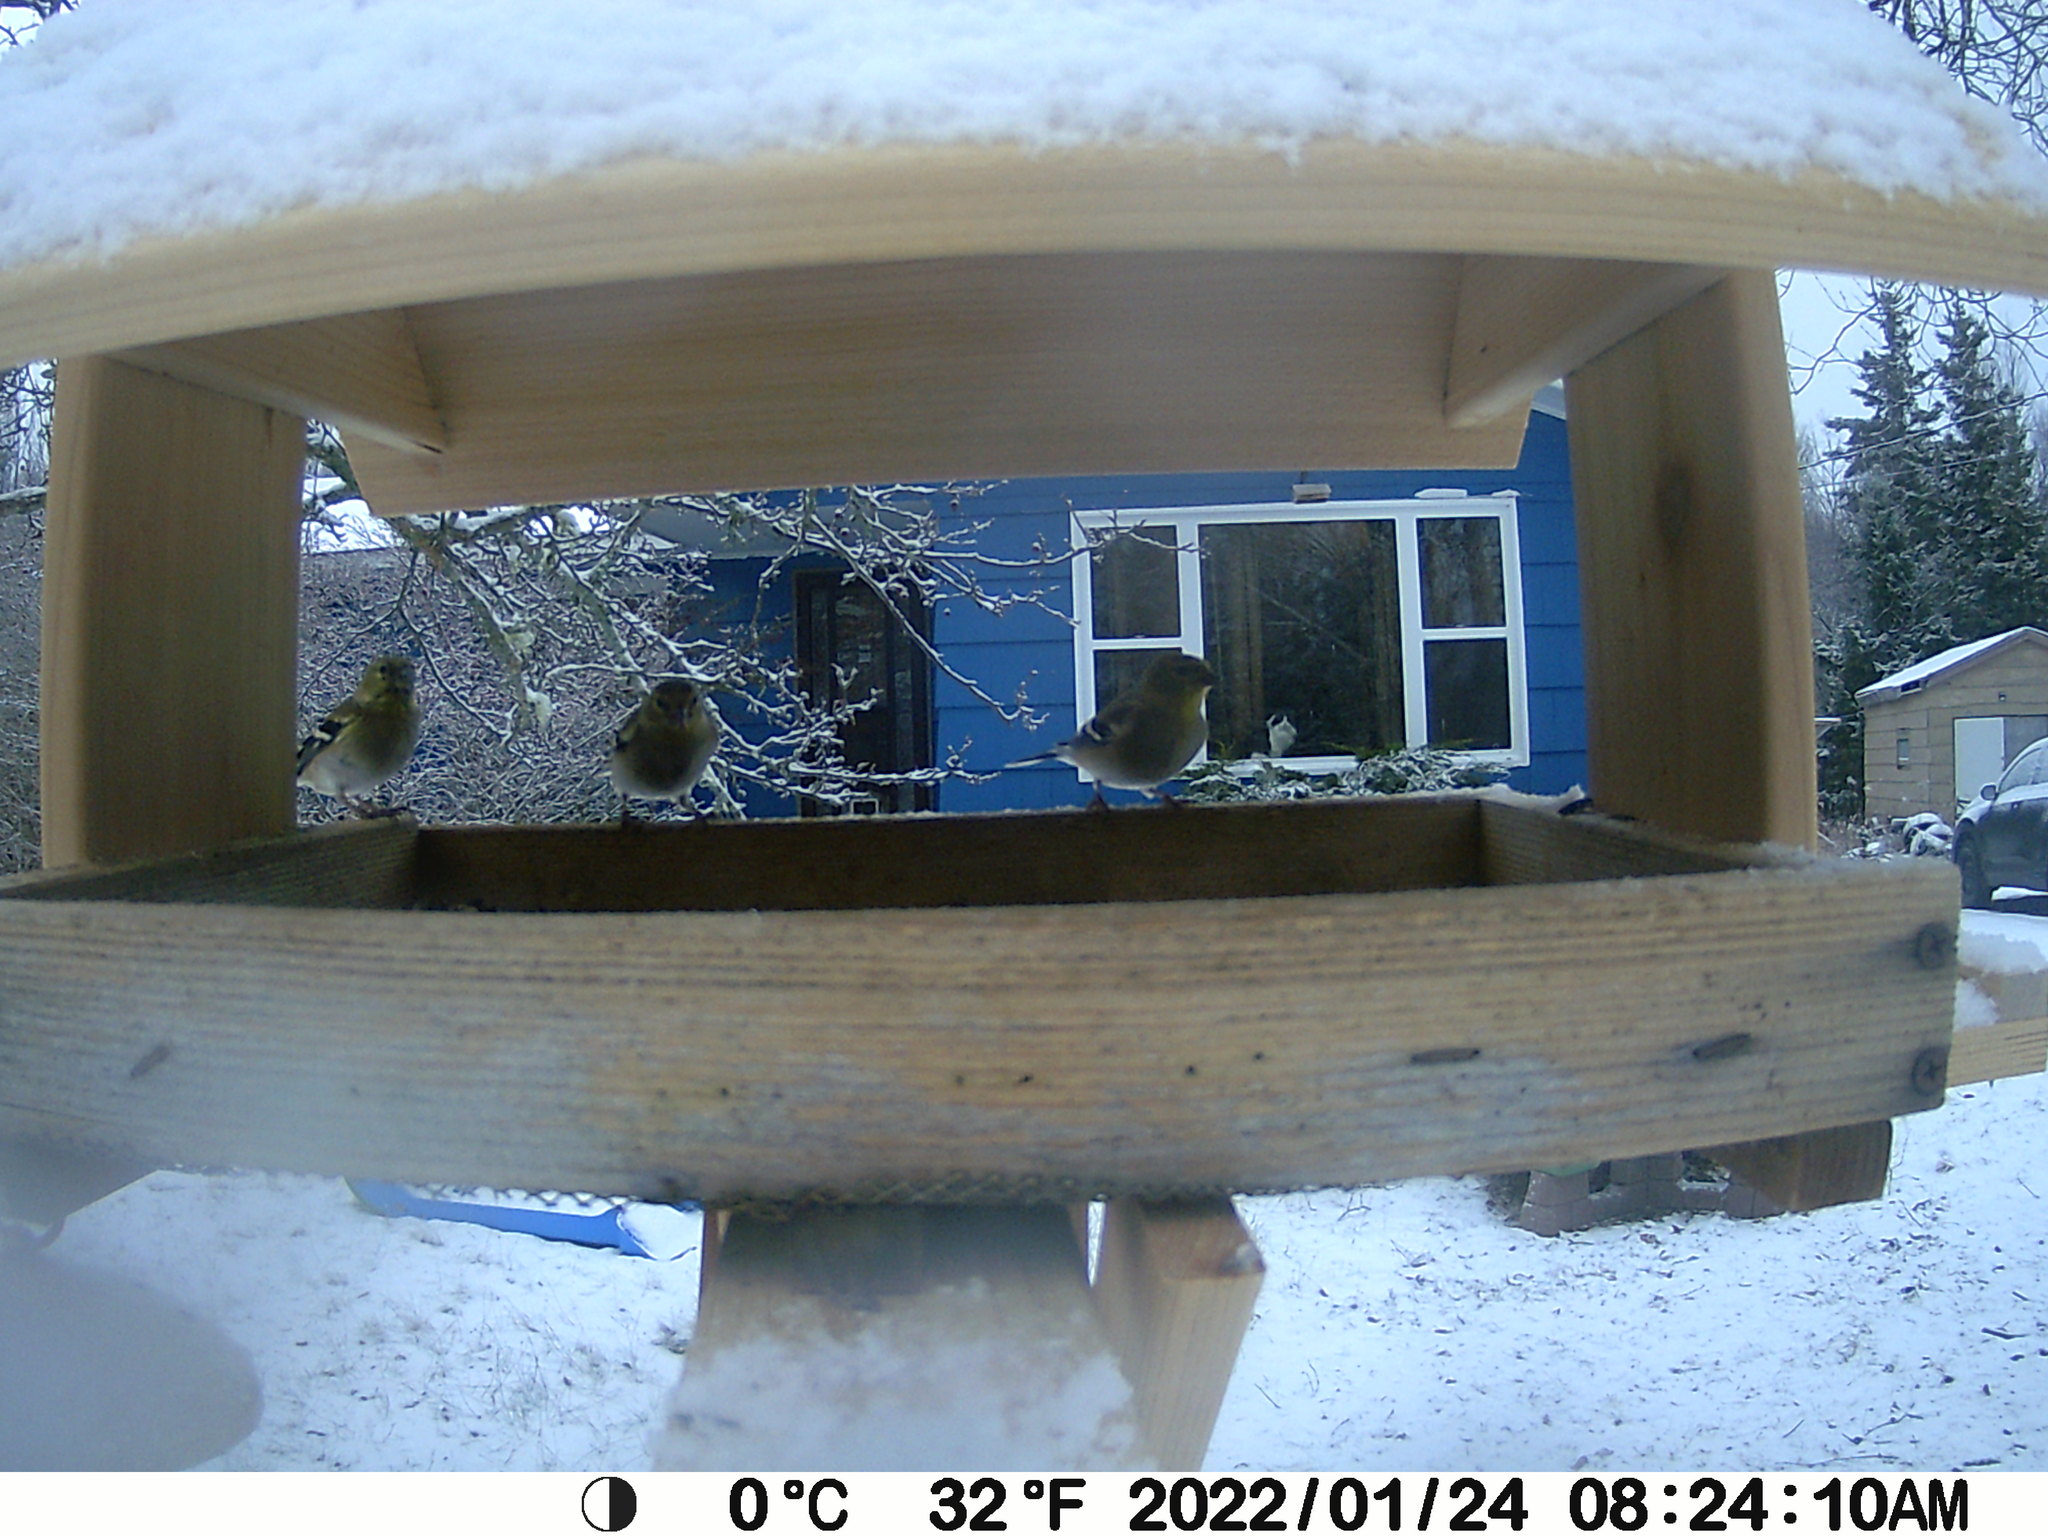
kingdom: Animalia
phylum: Chordata
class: Aves
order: Passeriformes
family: Fringillidae
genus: Spinus
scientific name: Spinus tristis
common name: American goldfinch
